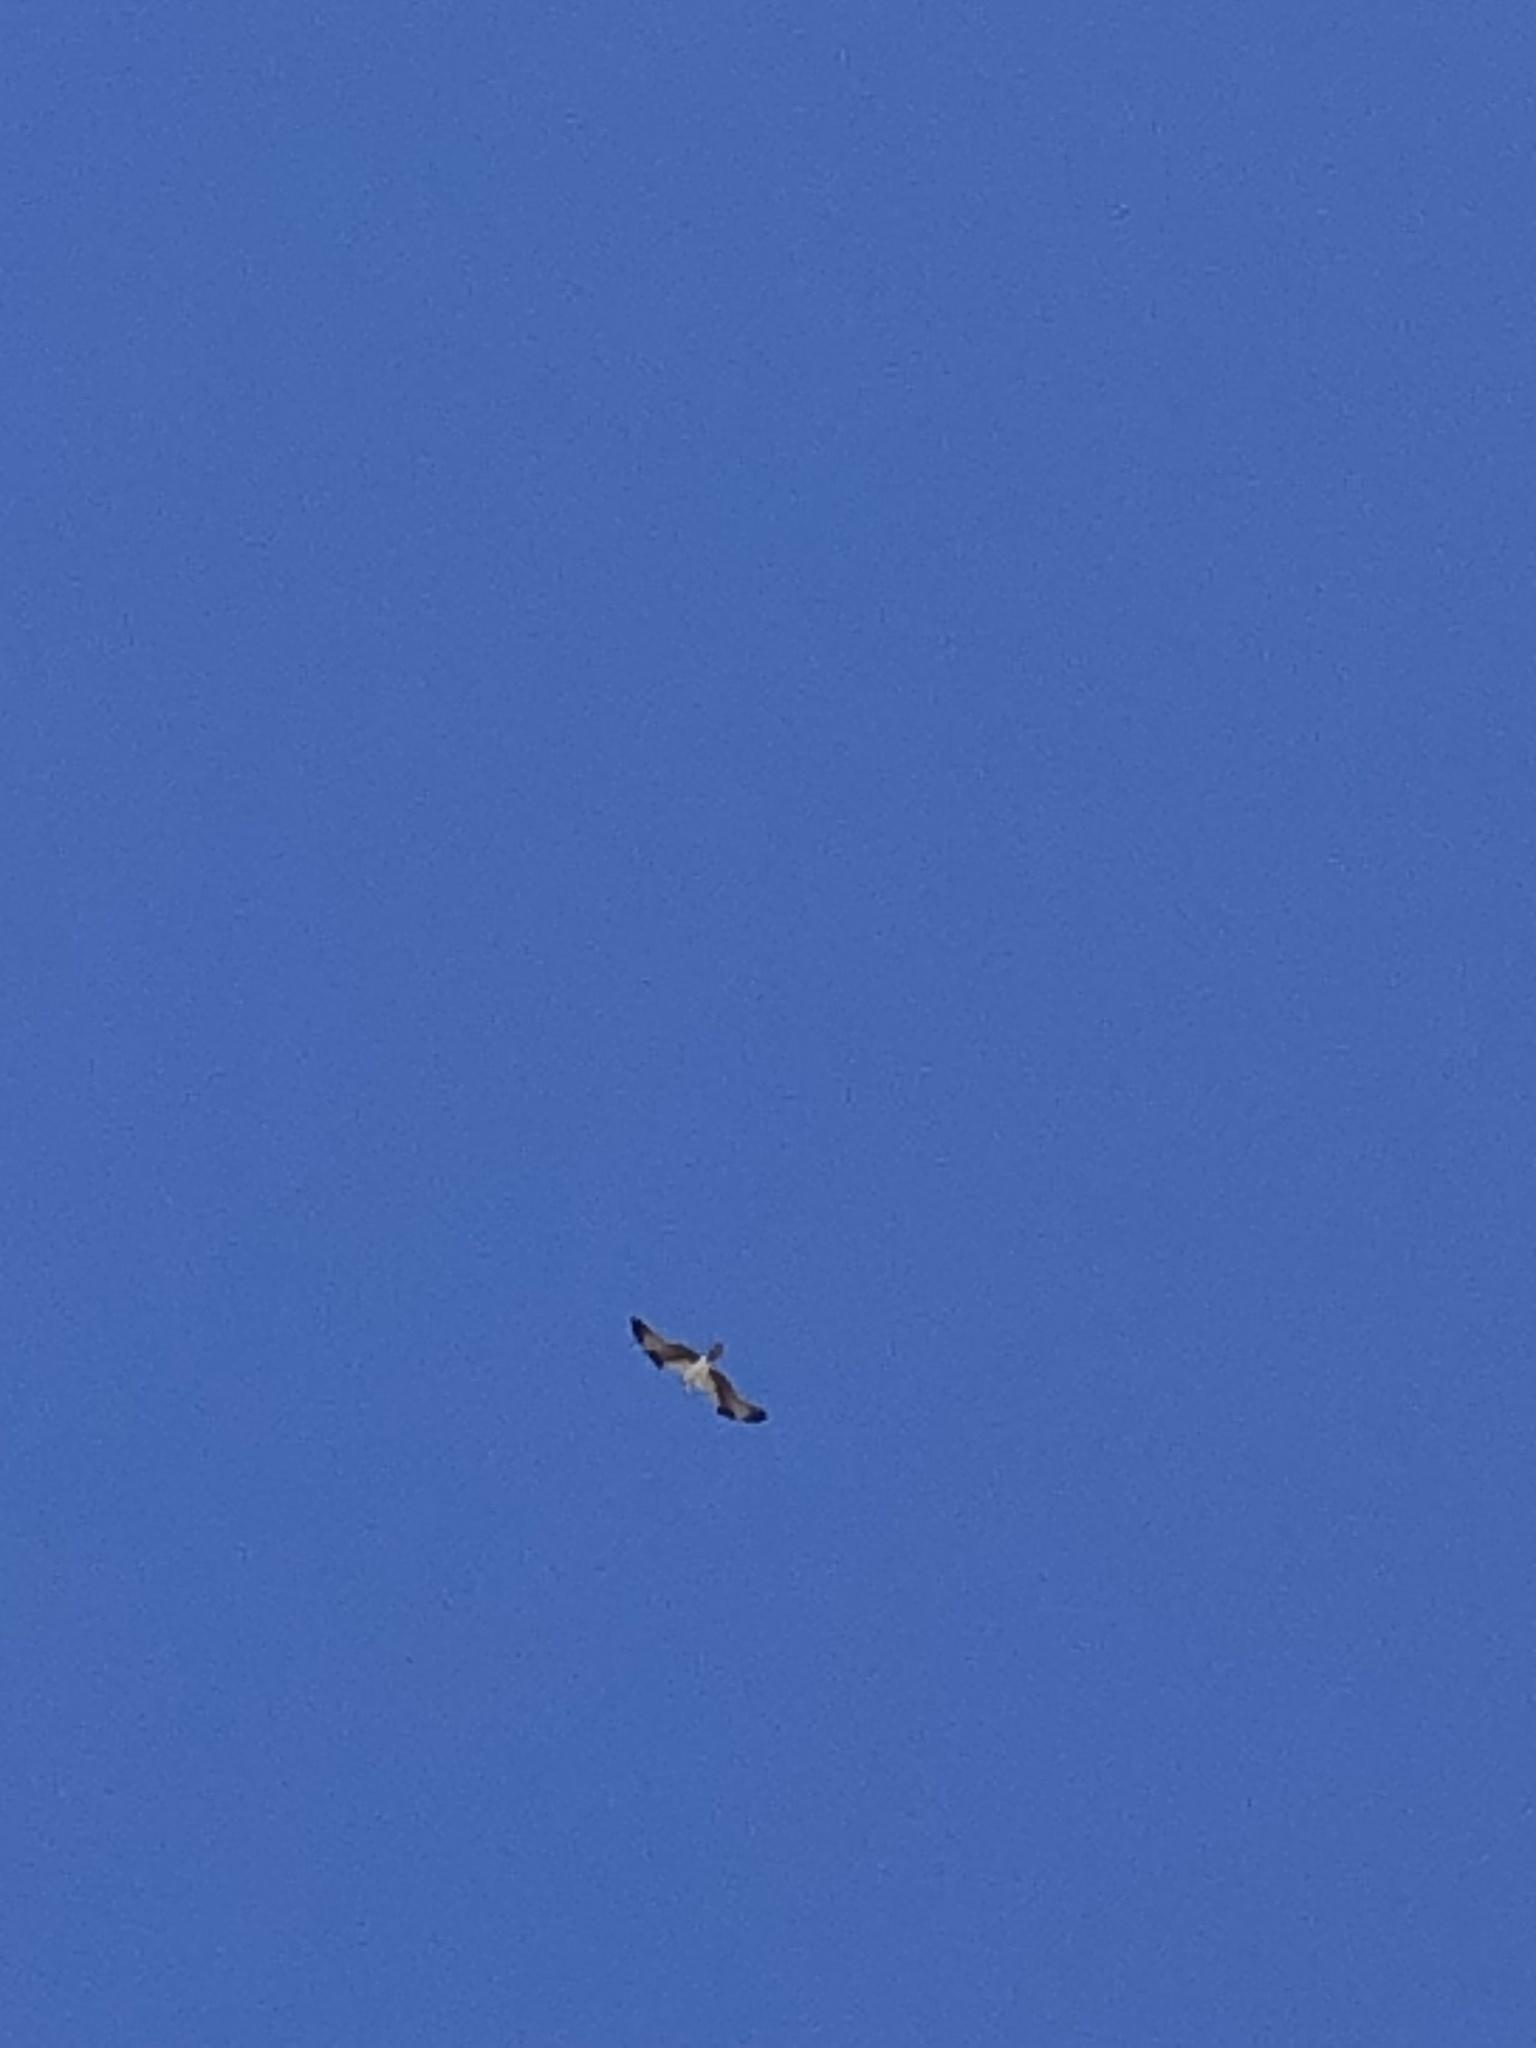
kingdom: Animalia
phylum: Chordata
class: Aves
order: Accipitriformes
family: Pandionidae
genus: Pandion
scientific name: Pandion haliaetus
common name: Osprey
